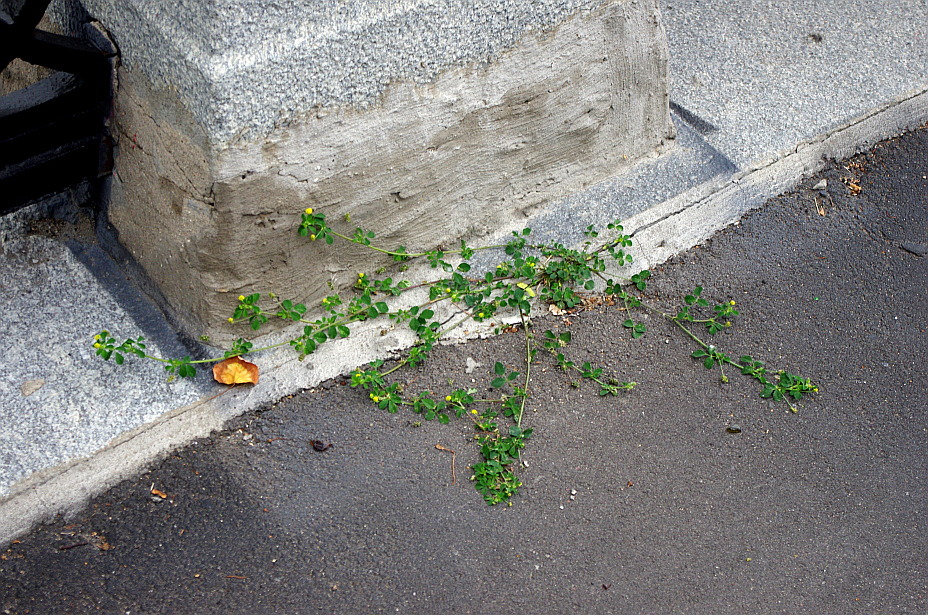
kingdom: Plantae
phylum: Tracheophyta
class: Magnoliopsida
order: Fabales
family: Fabaceae
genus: Medicago
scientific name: Medicago lupulina
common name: Black medick
